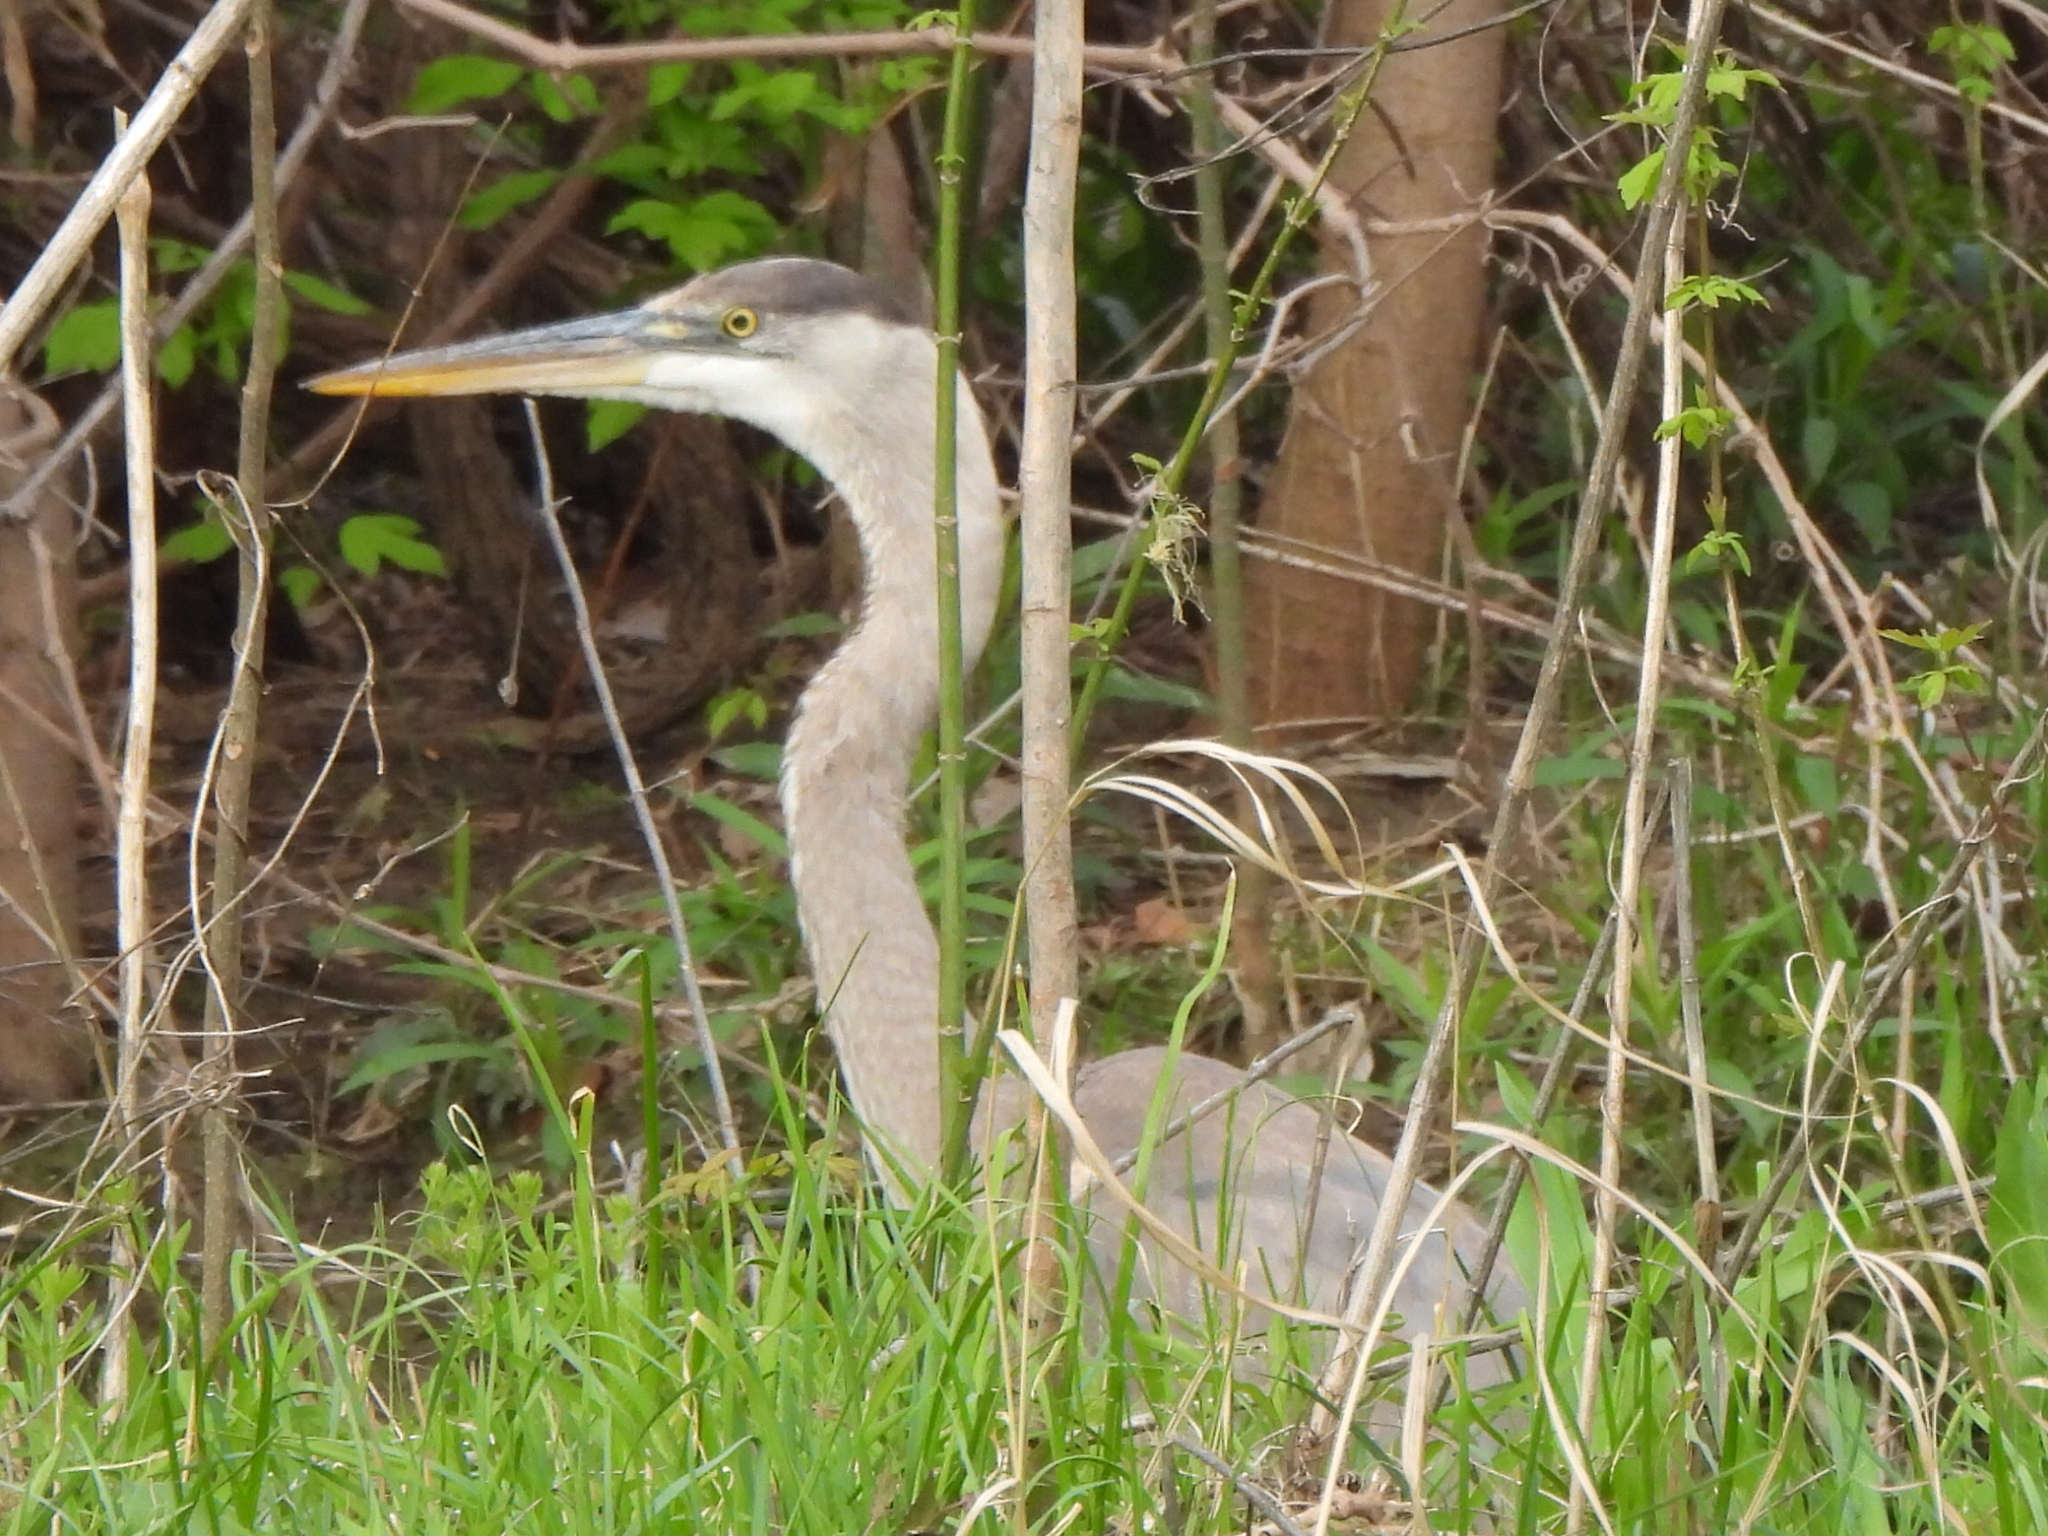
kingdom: Animalia
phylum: Chordata
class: Aves
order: Pelecaniformes
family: Ardeidae
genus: Ardea
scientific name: Ardea herodias
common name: Great blue heron
